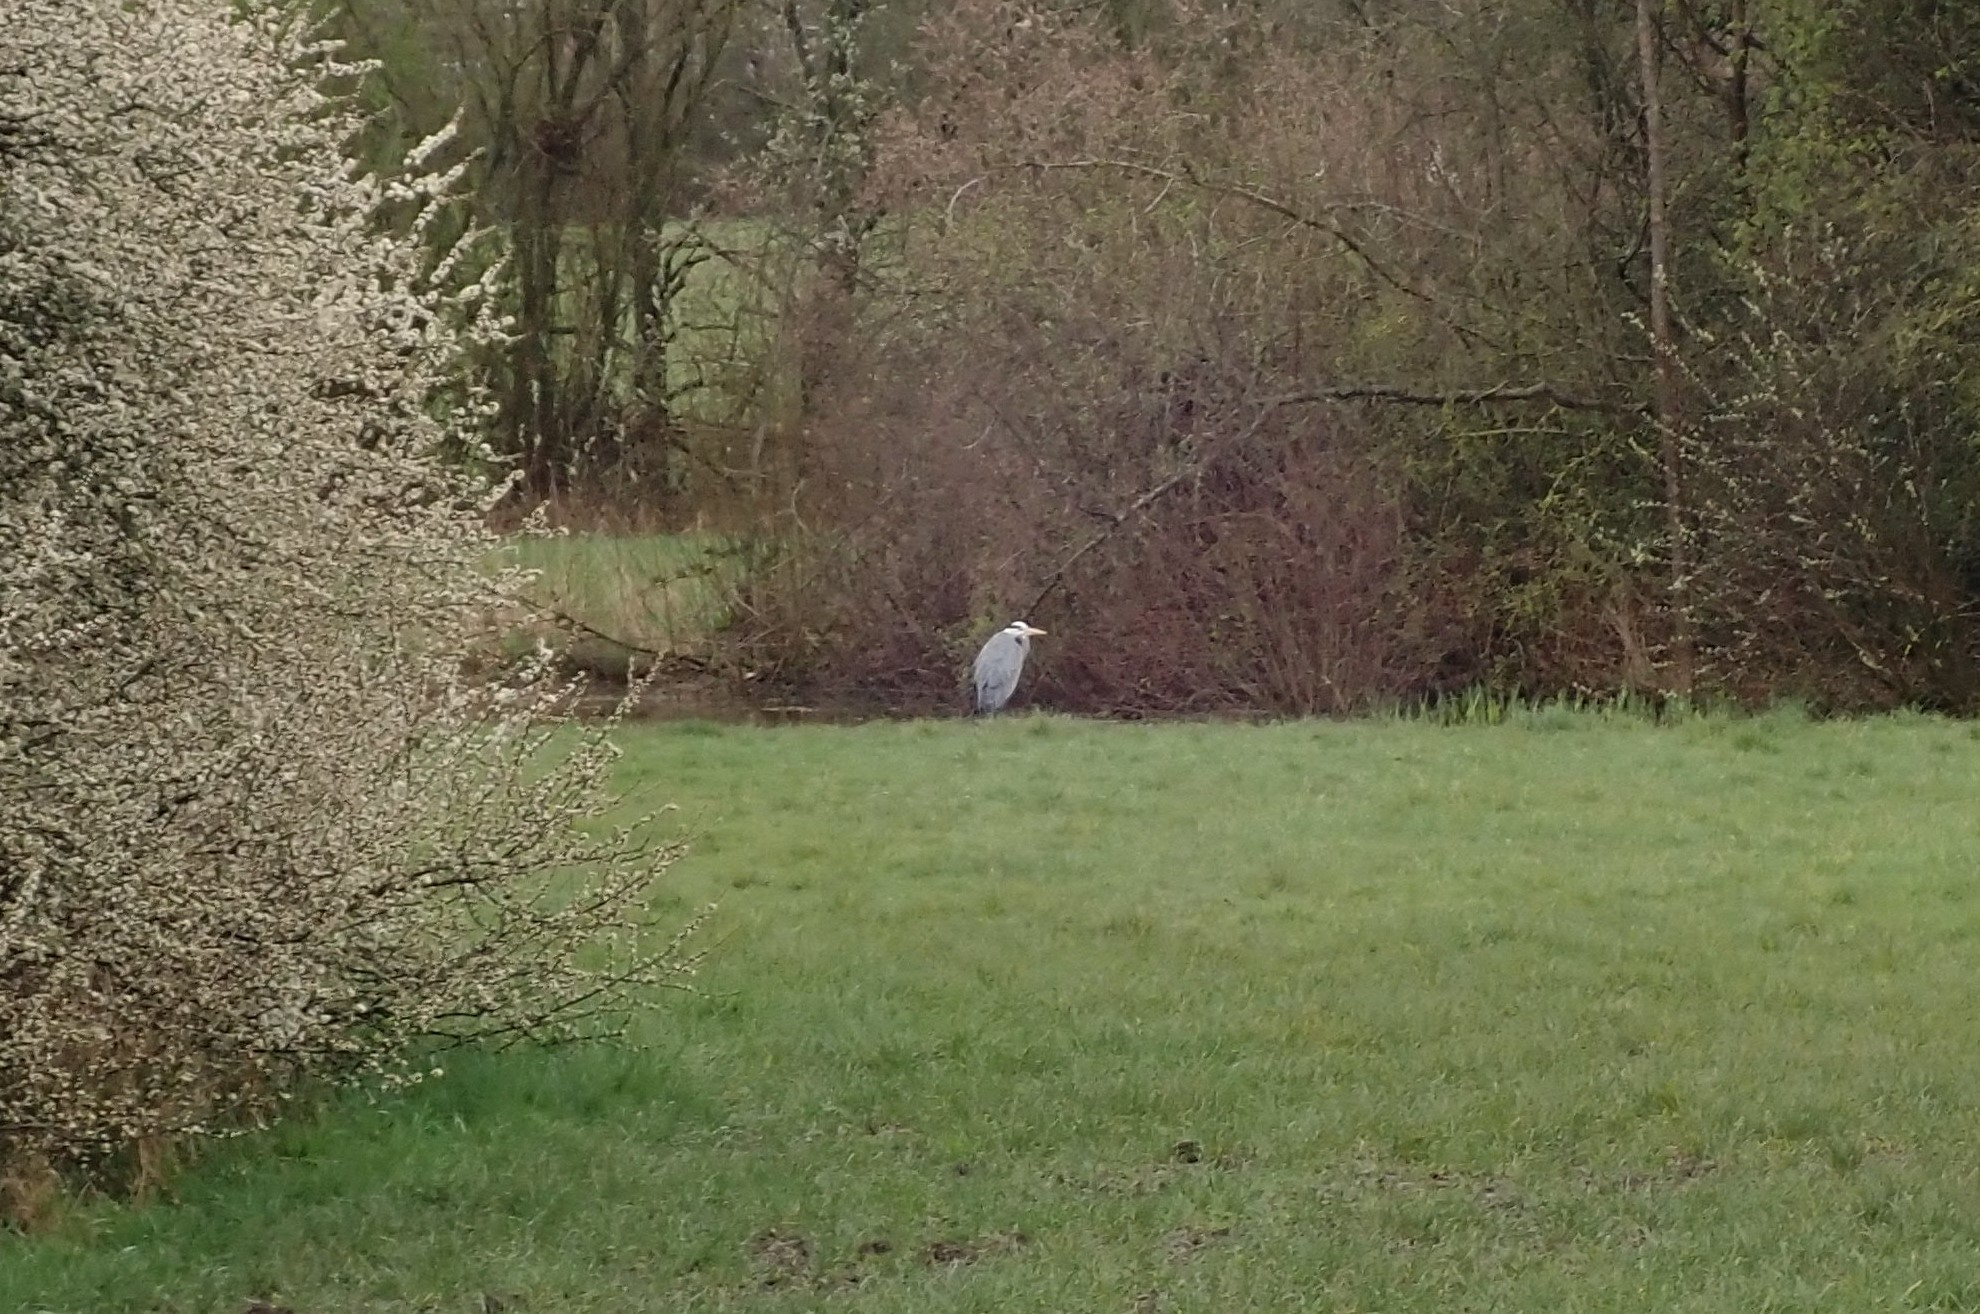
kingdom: Animalia
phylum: Chordata
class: Aves
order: Pelecaniformes
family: Ardeidae
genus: Ardea
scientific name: Ardea cinerea
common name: Grey heron
